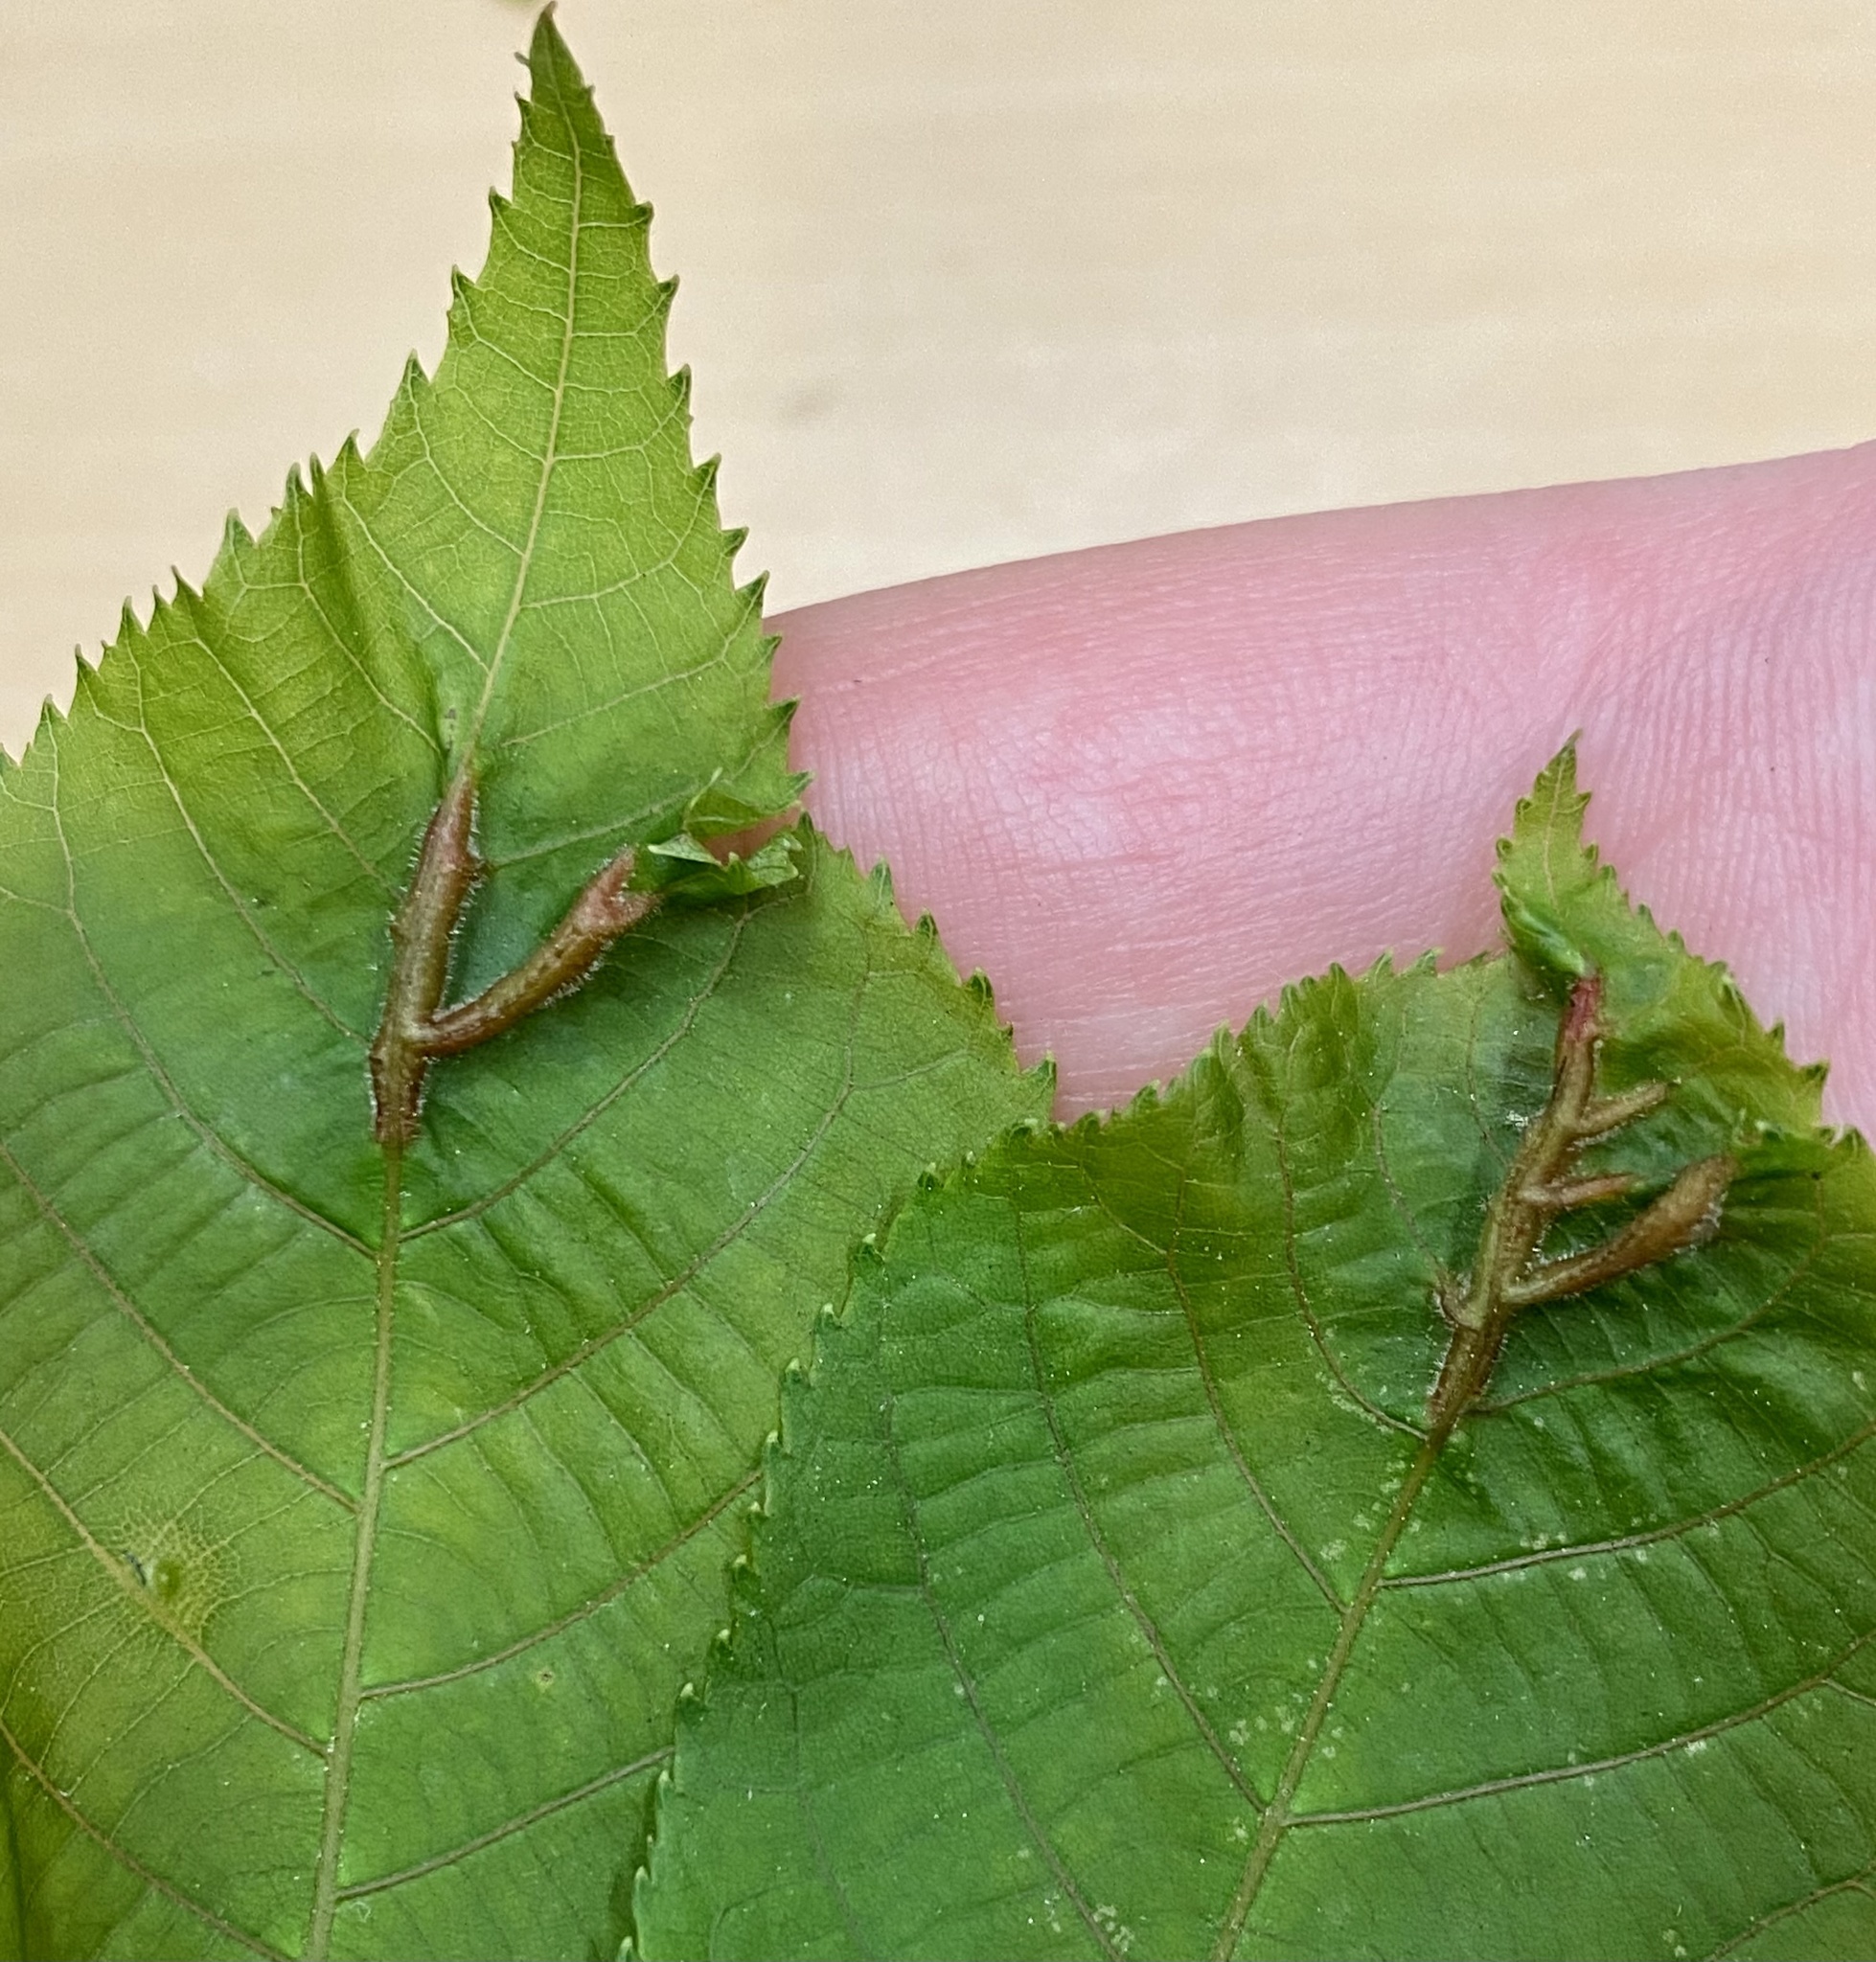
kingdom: Animalia
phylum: Arthropoda
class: Insecta
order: Hemiptera
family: Phylloxeridae
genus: Phylloxera
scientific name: Phylloxera caryaevenae
